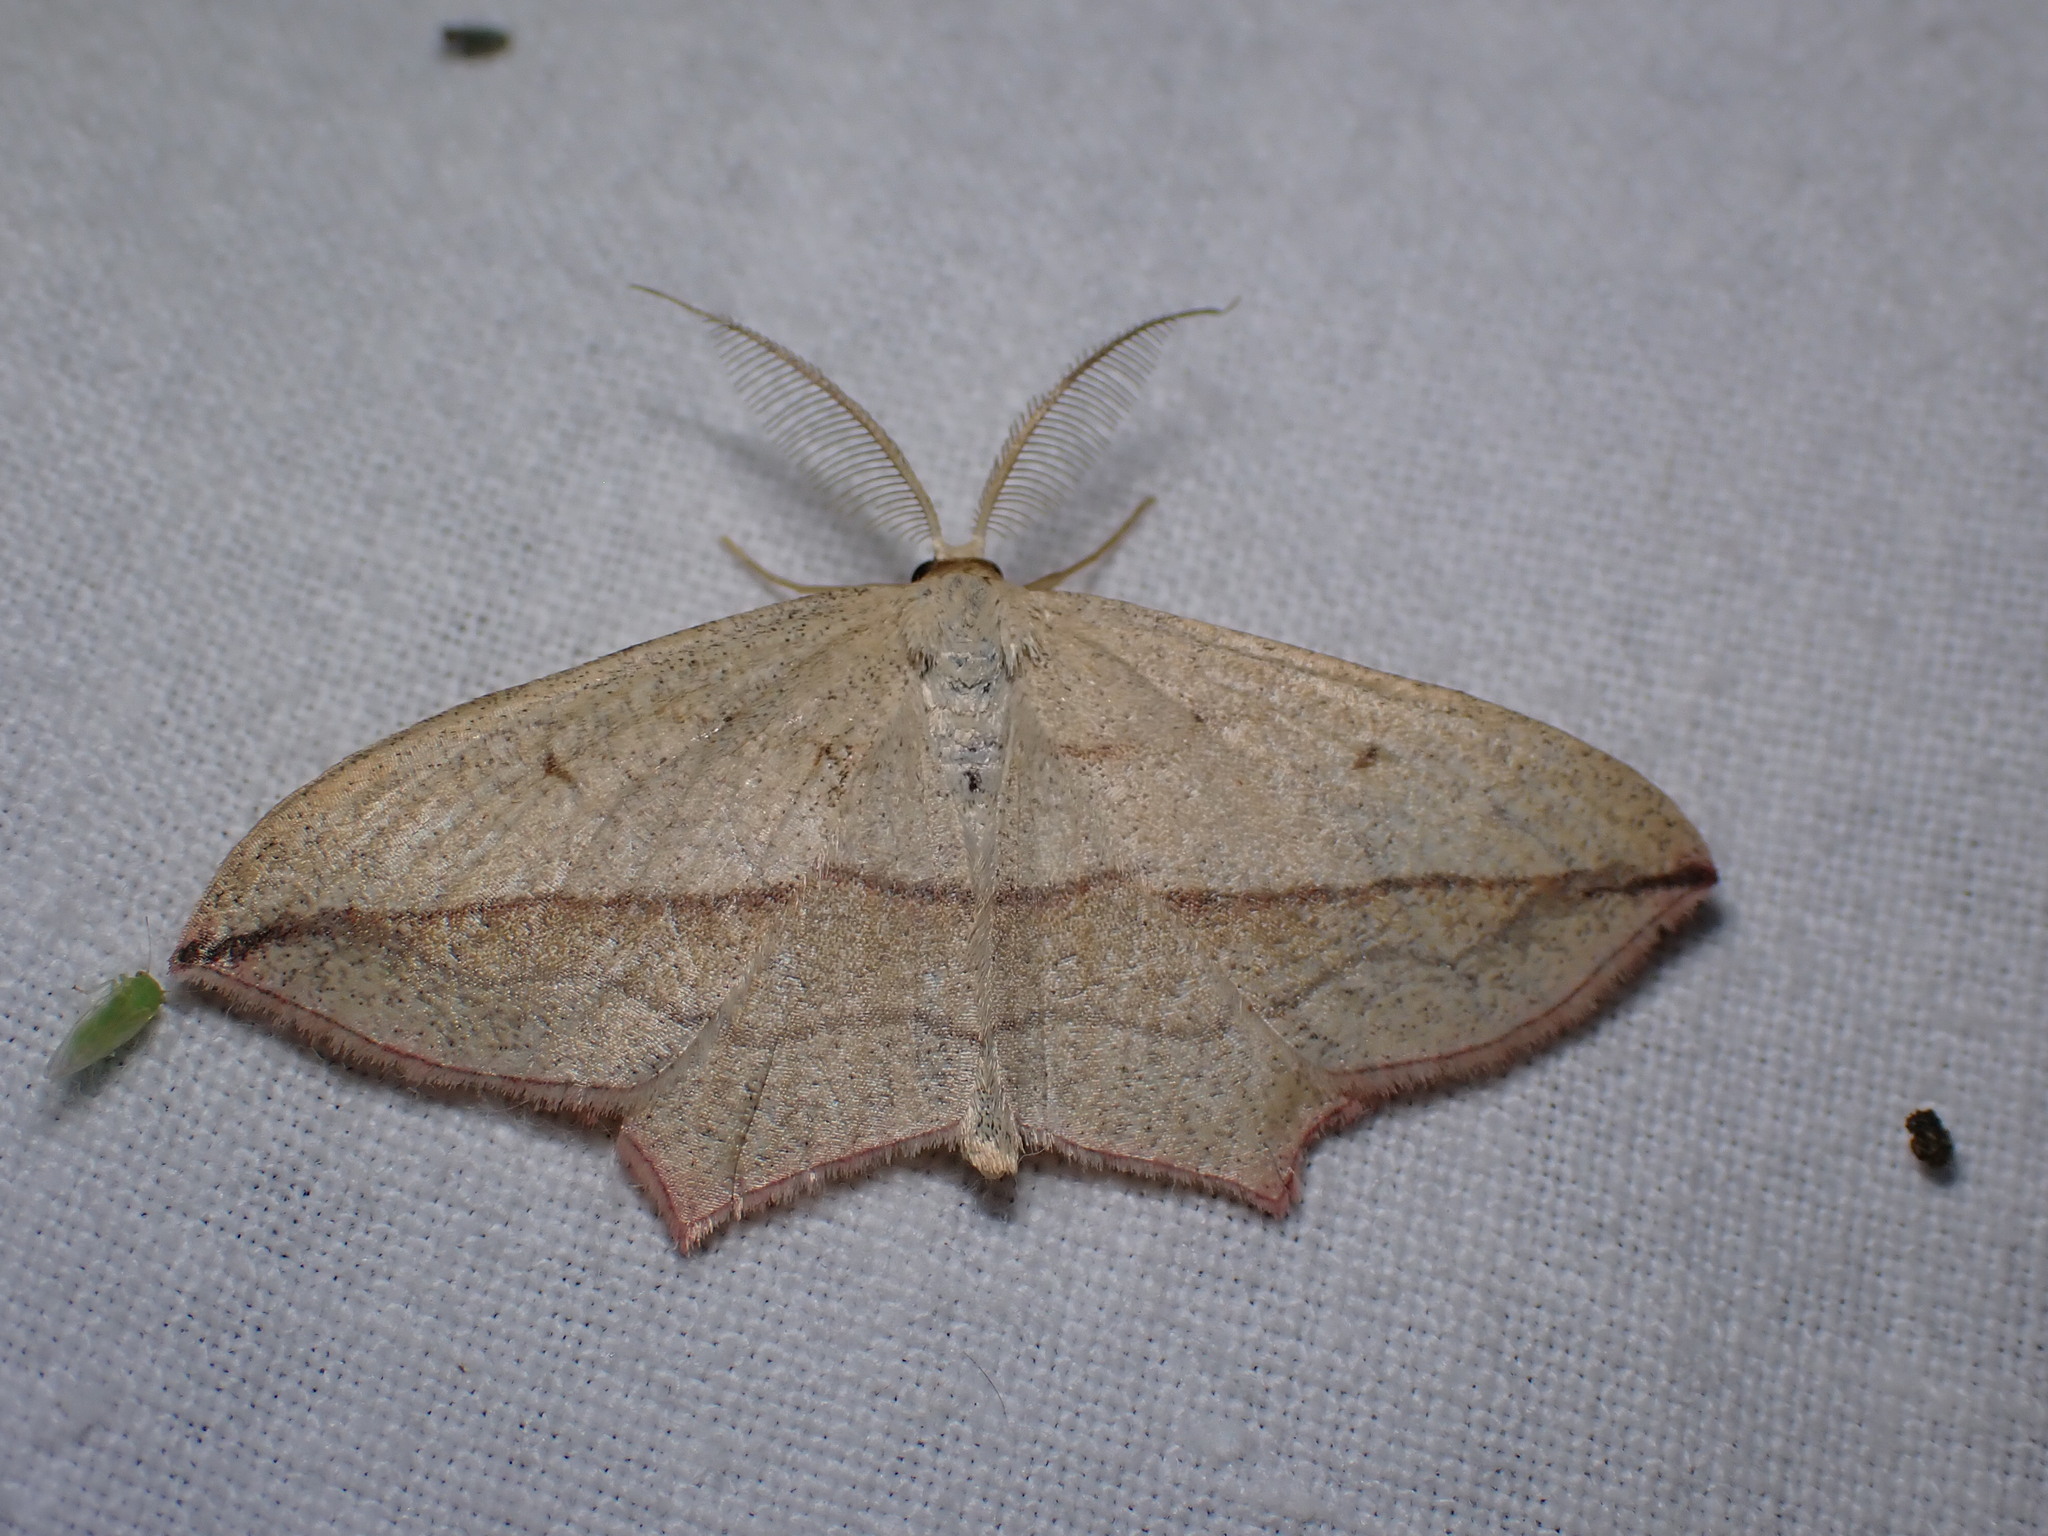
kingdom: Animalia
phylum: Arthropoda
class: Insecta
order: Lepidoptera
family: Geometridae
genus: Timandra
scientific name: Timandra comae
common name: Blood-vein
